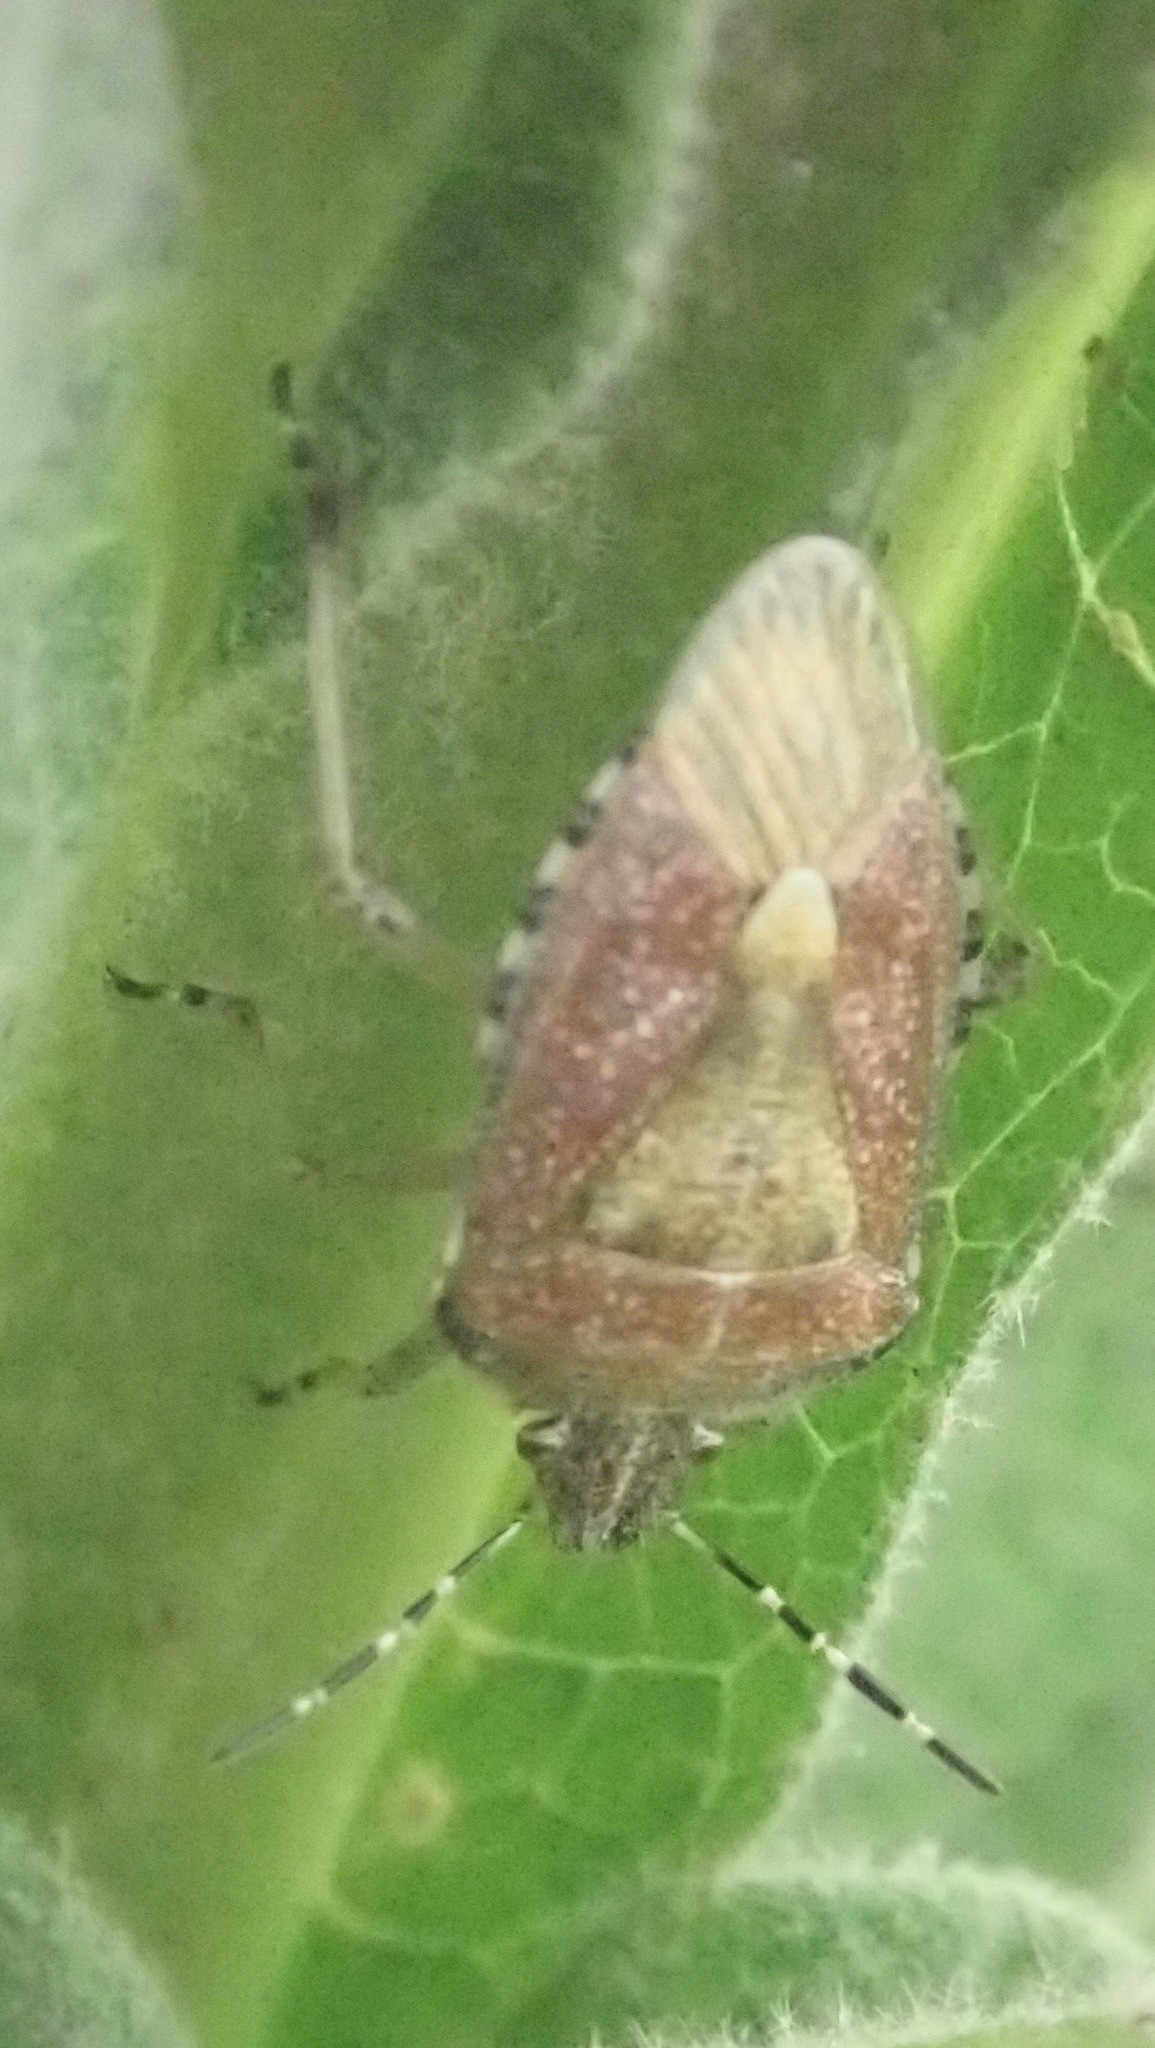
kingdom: Animalia
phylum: Arthropoda
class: Insecta
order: Hemiptera
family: Pentatomidae
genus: Dolycoris
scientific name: Dolycoris baccarum
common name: Sloe bug
